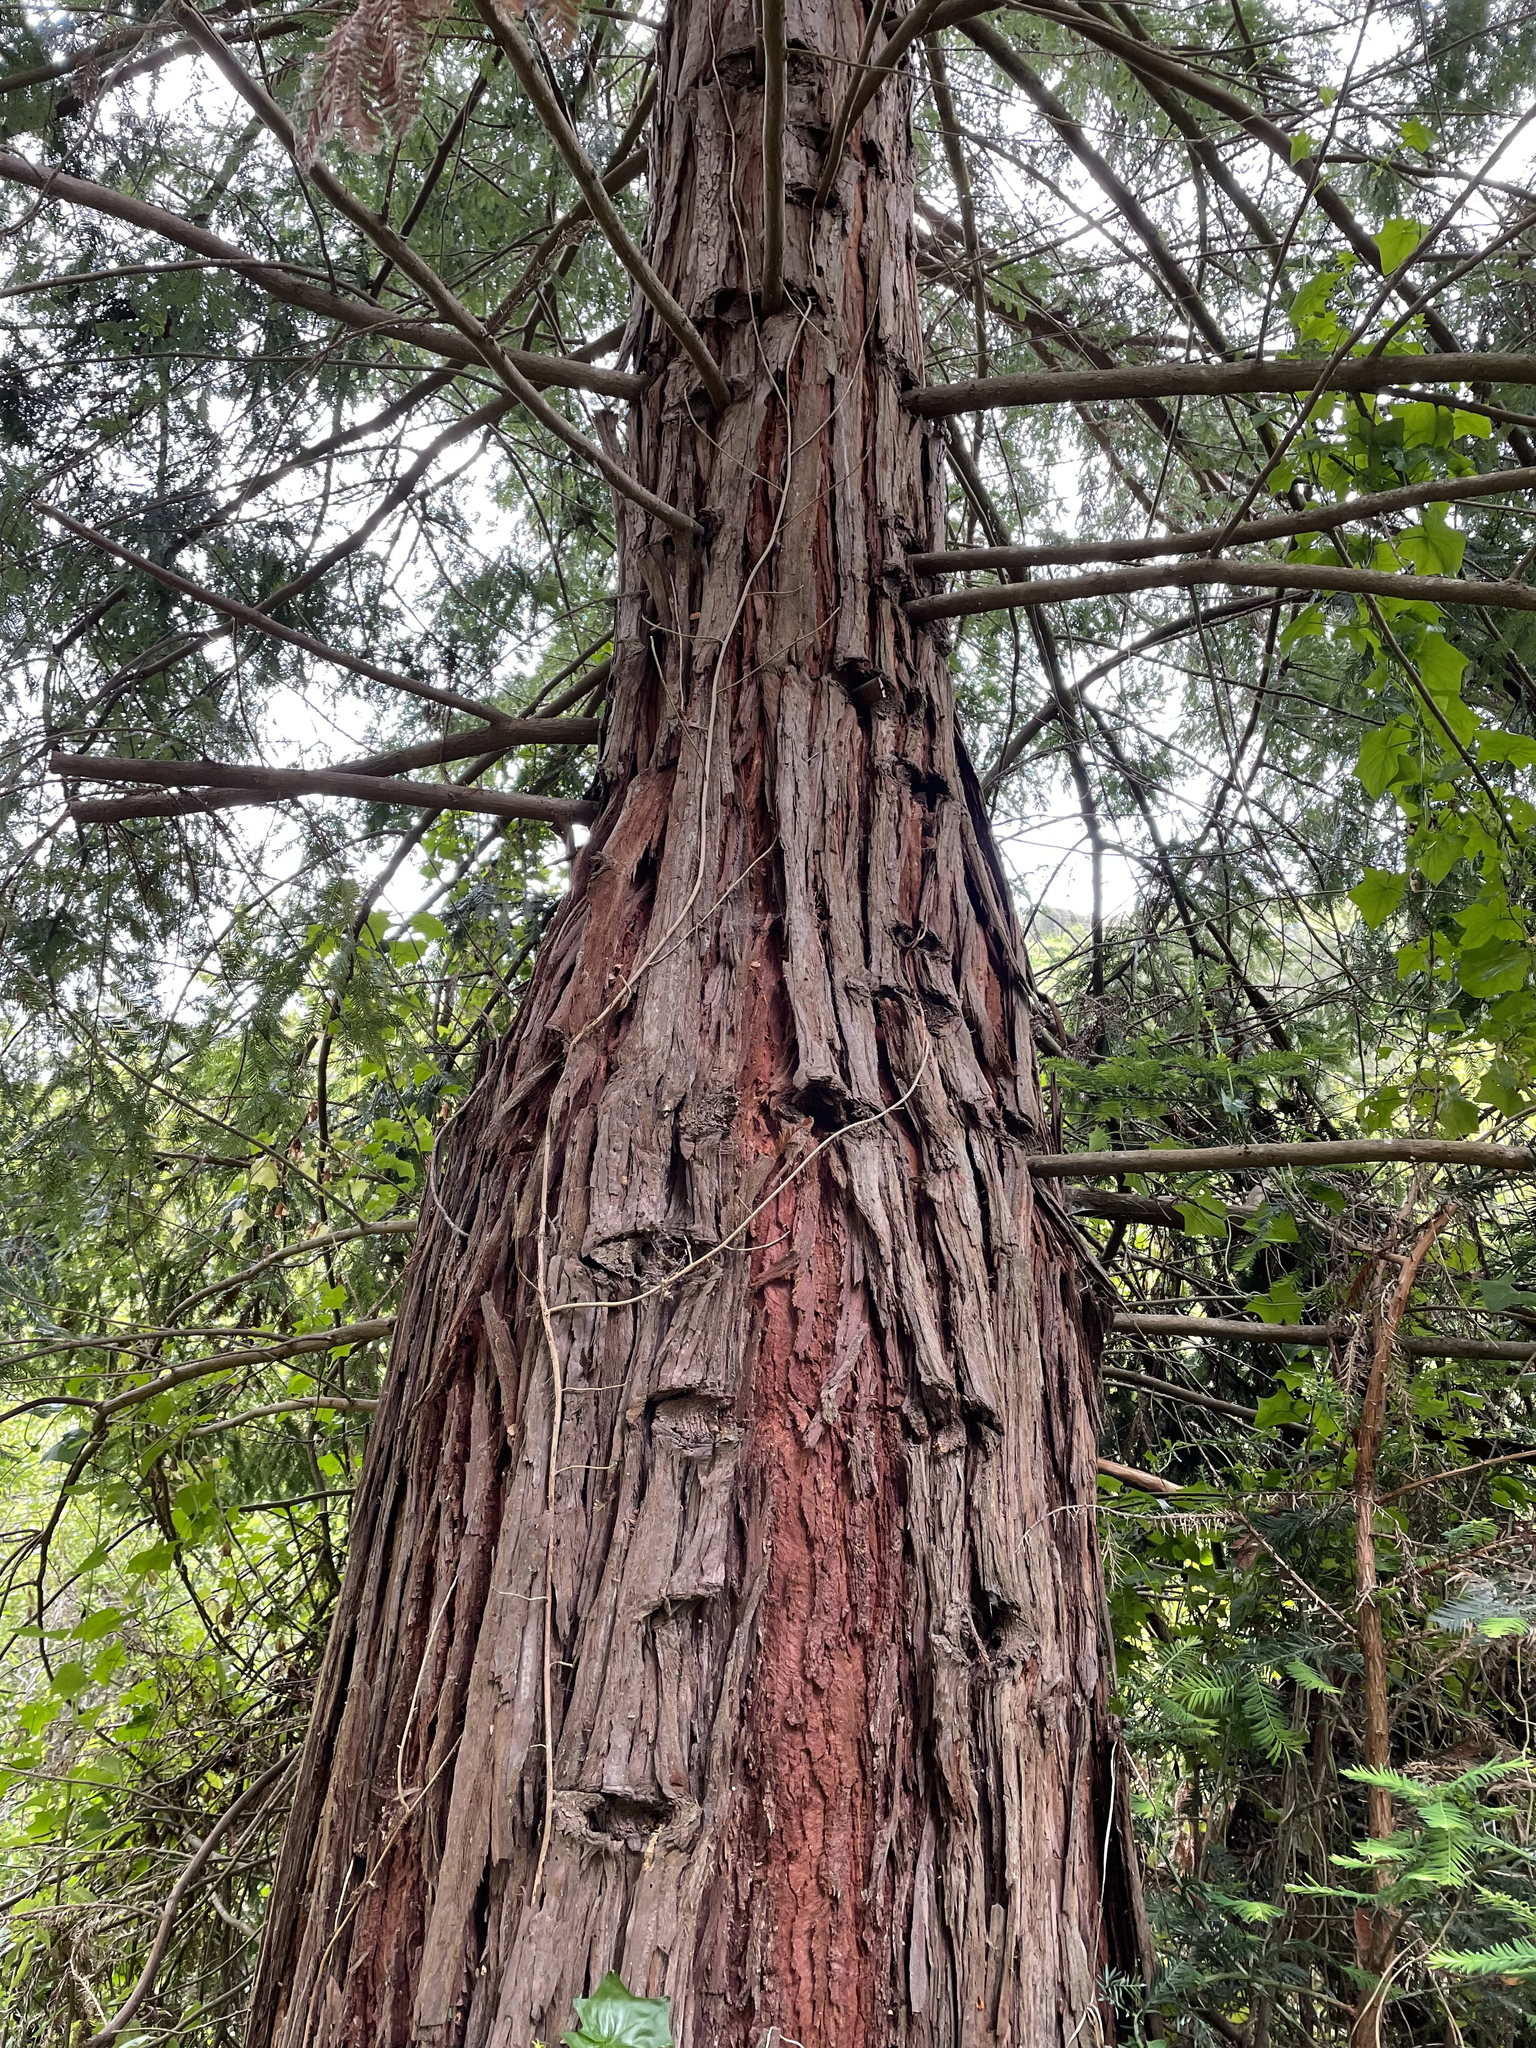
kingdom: Plantae
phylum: Tracheophyta
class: Pinopsida
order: Pinales
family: Cupressaceae
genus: Sequoia
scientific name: Sequoia sempervirens
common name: Coast redwood
